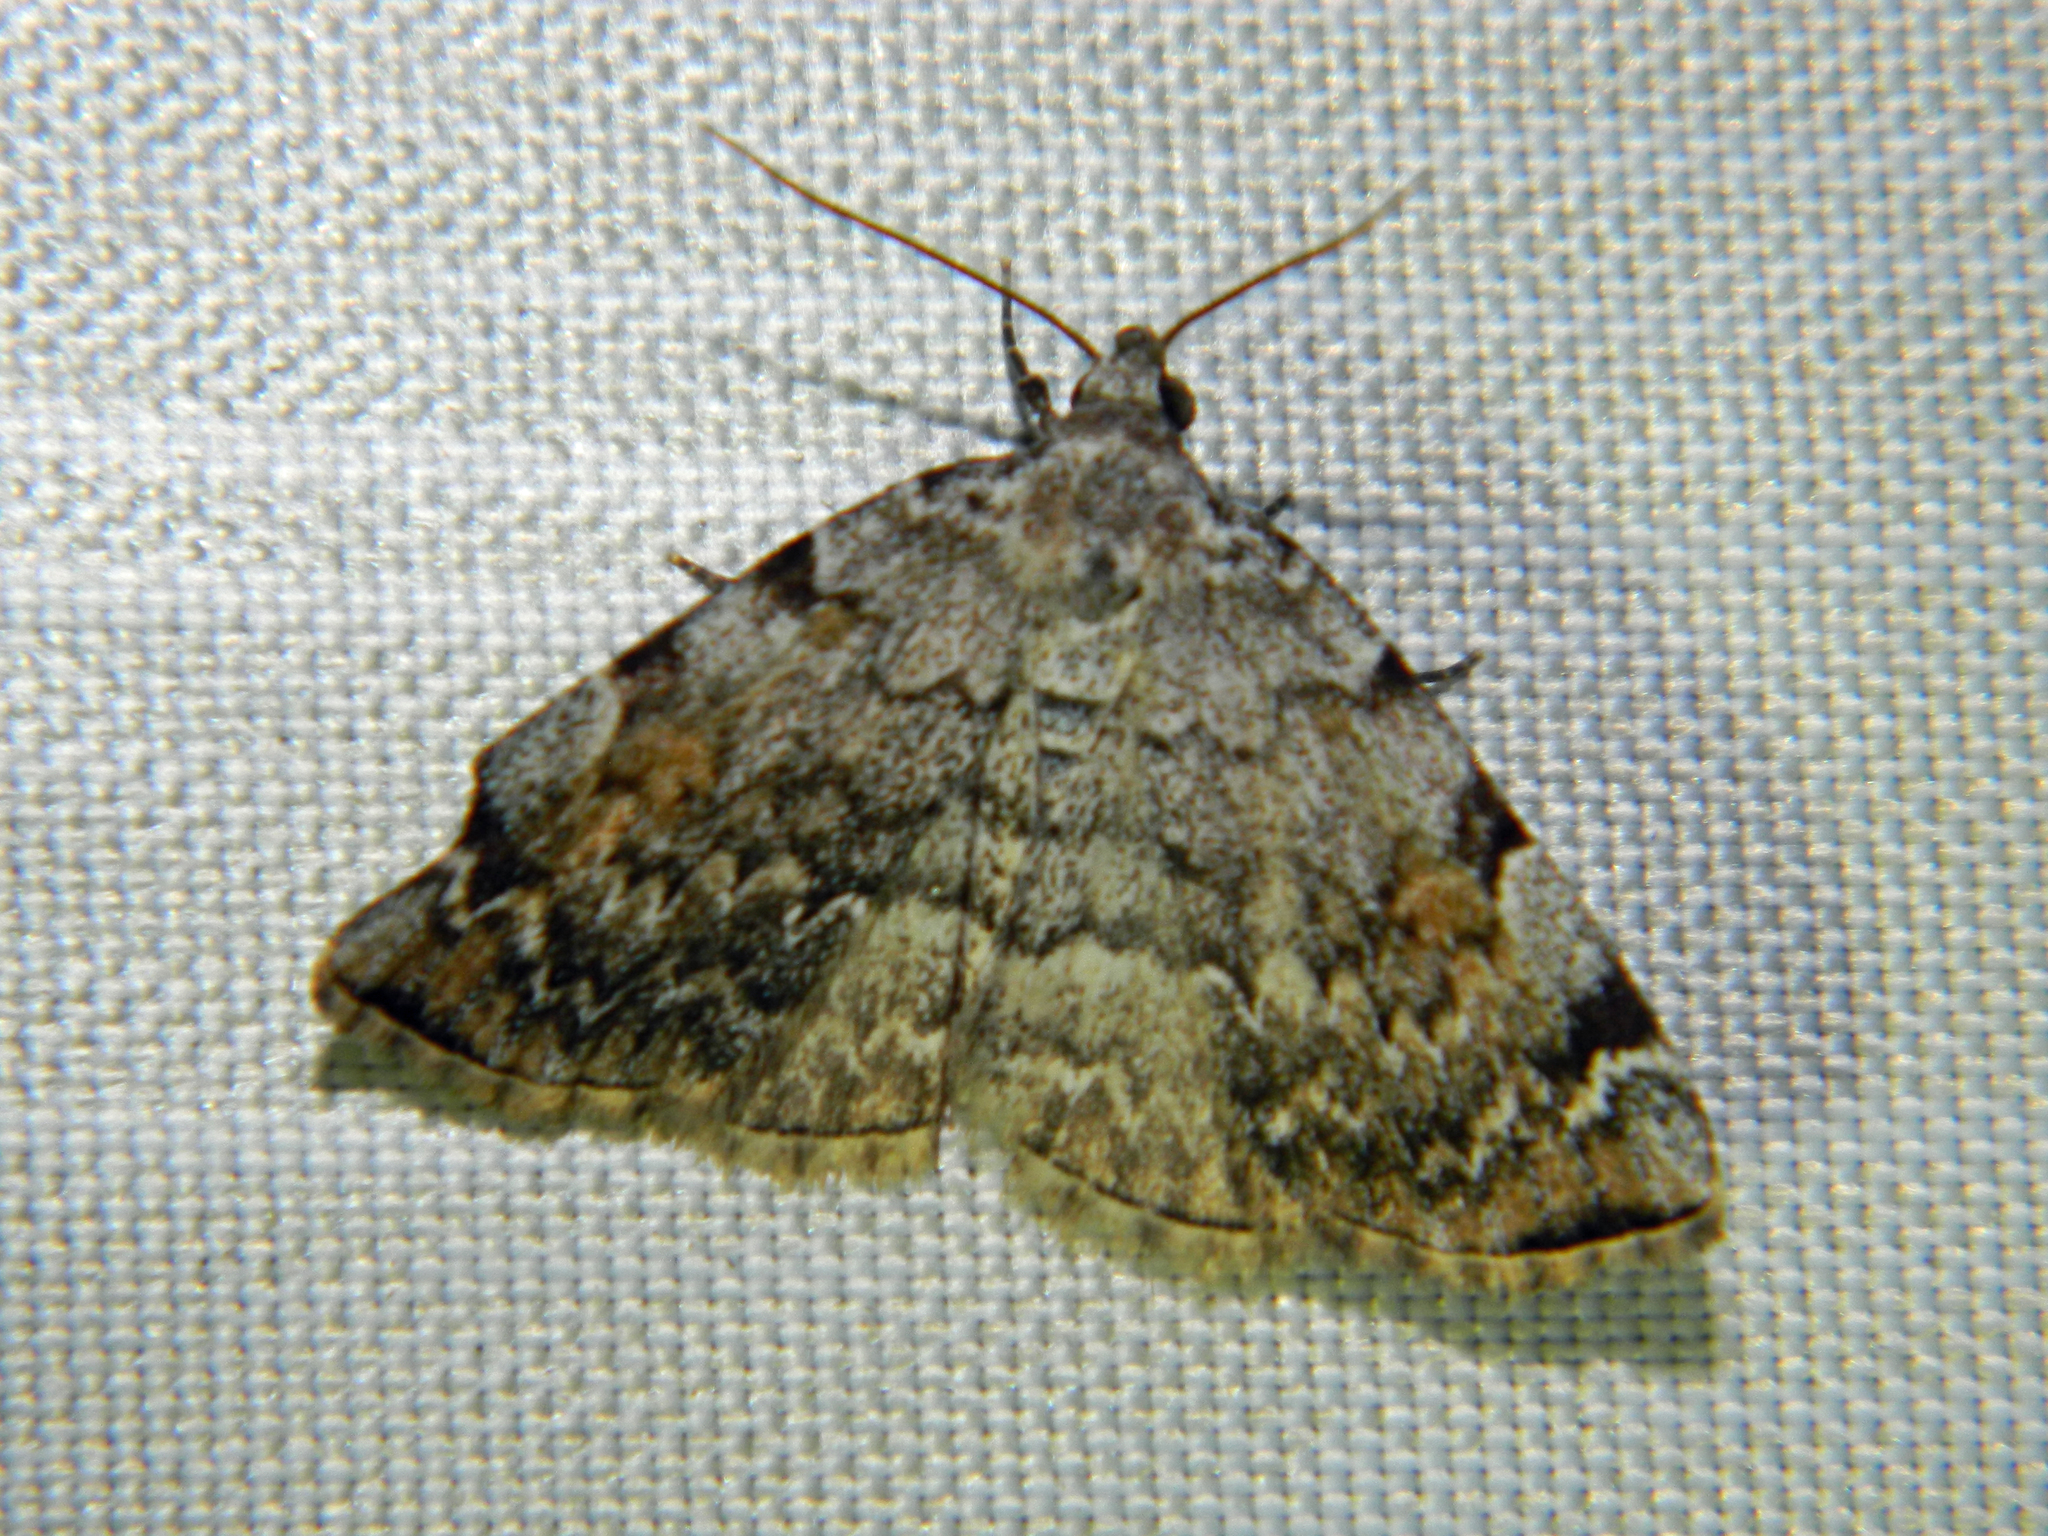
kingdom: Animalia
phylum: Arthropoda
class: Insecta
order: Lepidoptera
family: Erebidae
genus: Idia
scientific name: Idia americalis
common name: American idia moth
